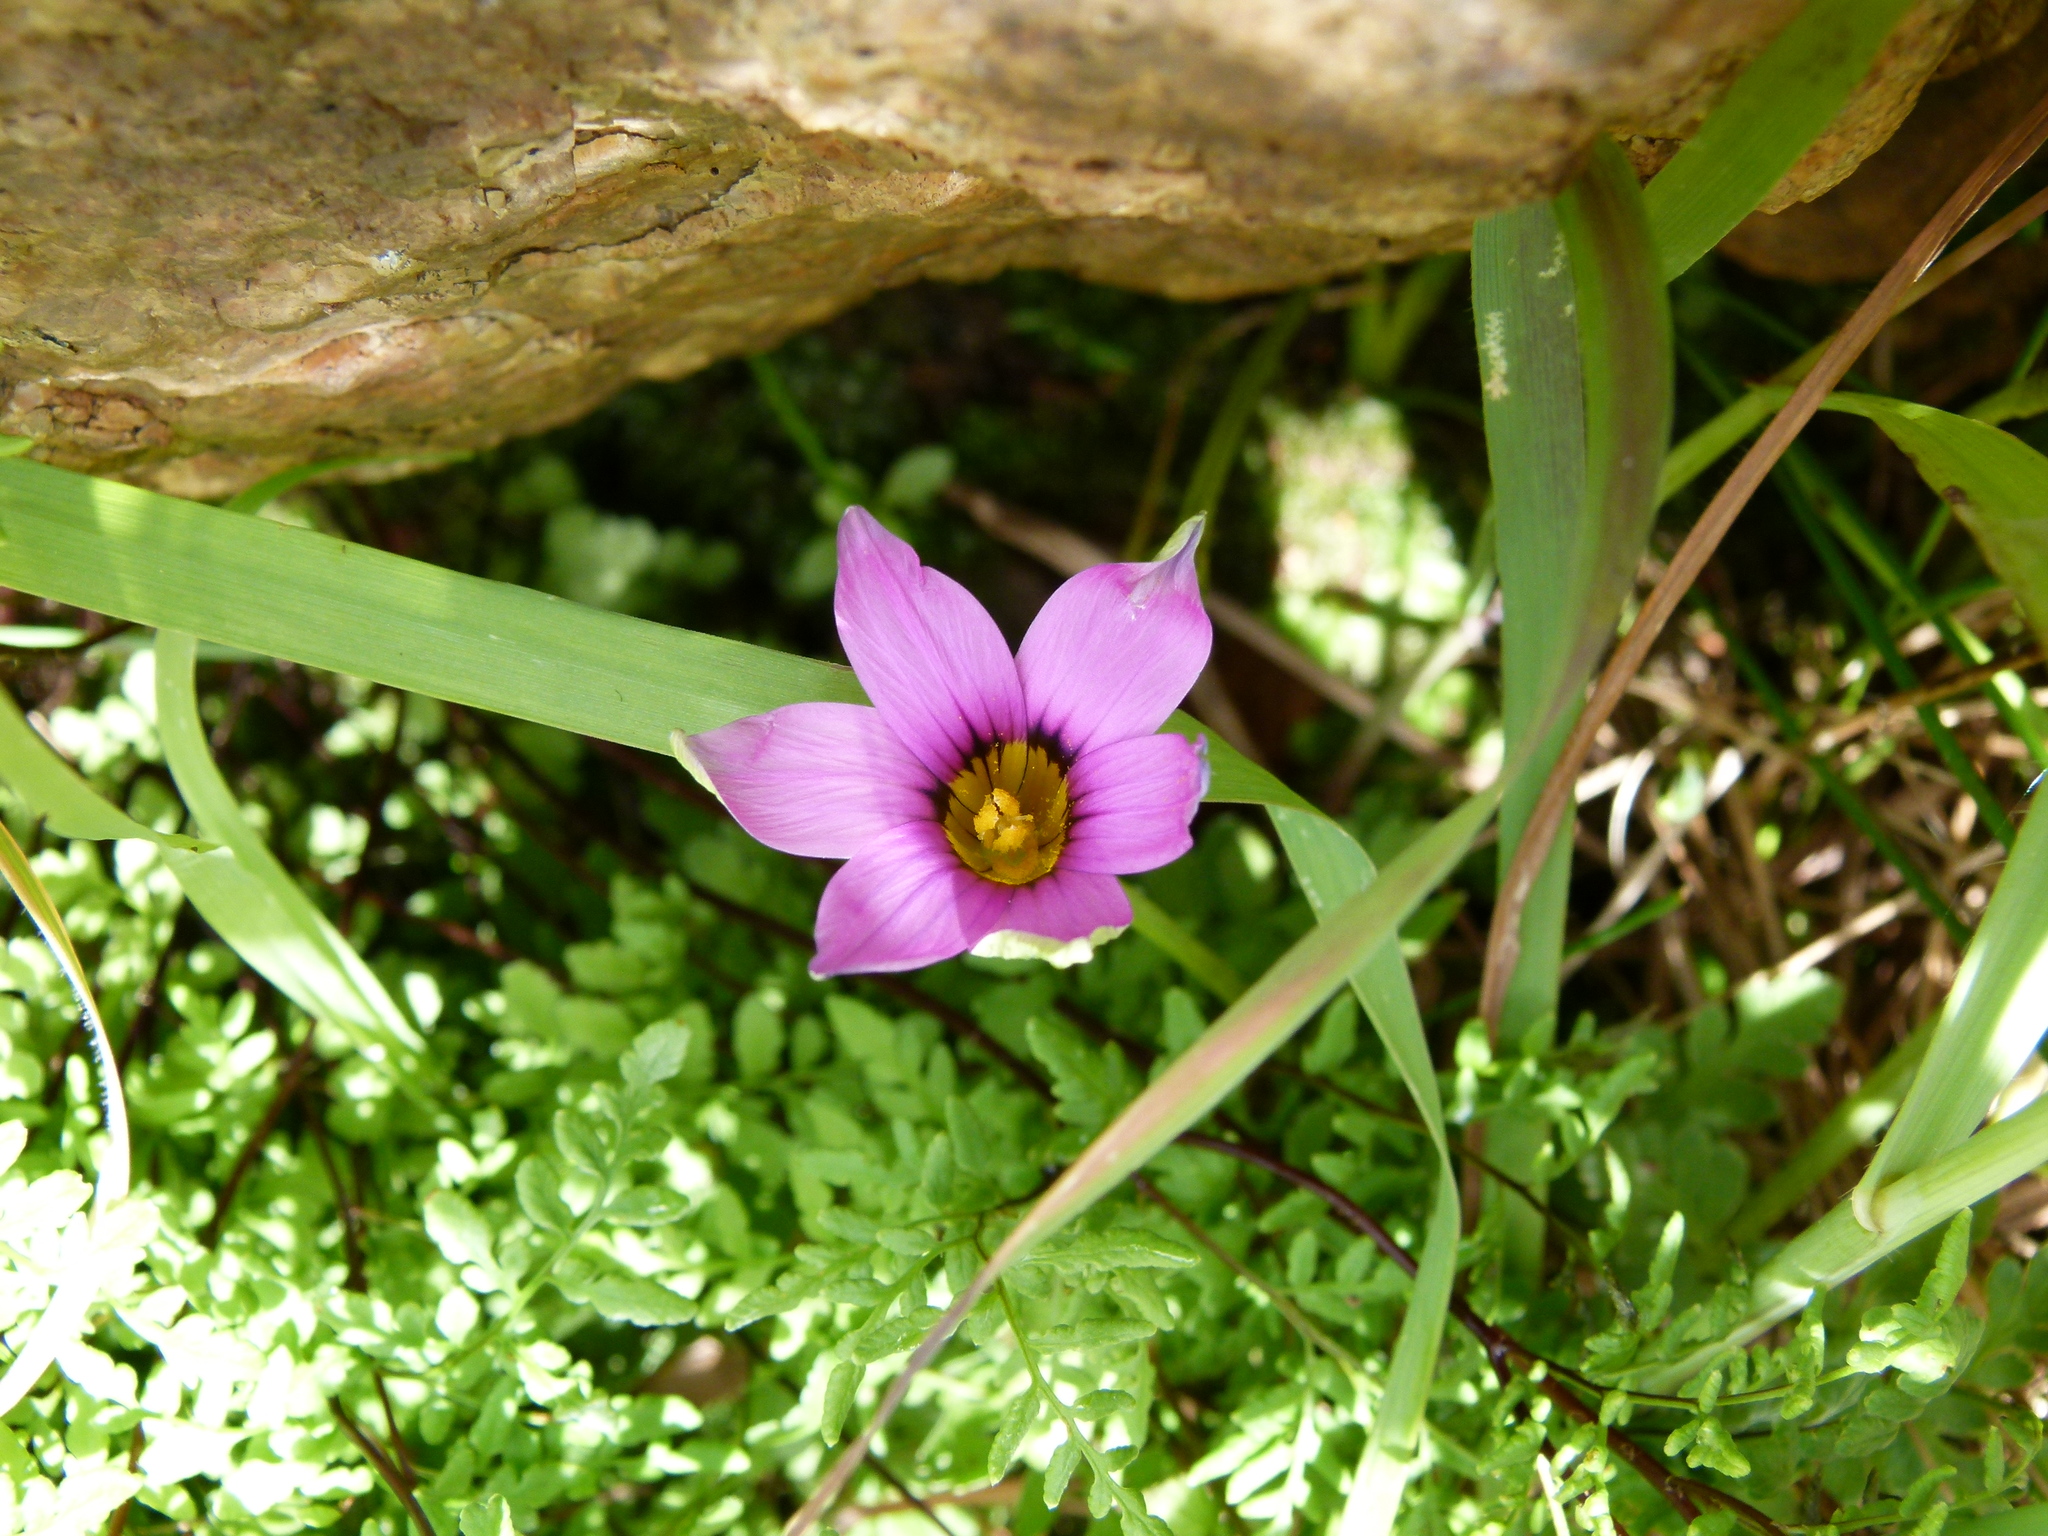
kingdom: Plantae
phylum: Tracheophyta
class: Liliopsida
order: Asparagales
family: Iridaceae
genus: Romulea
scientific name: Romulea rosea
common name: Oniongrass
